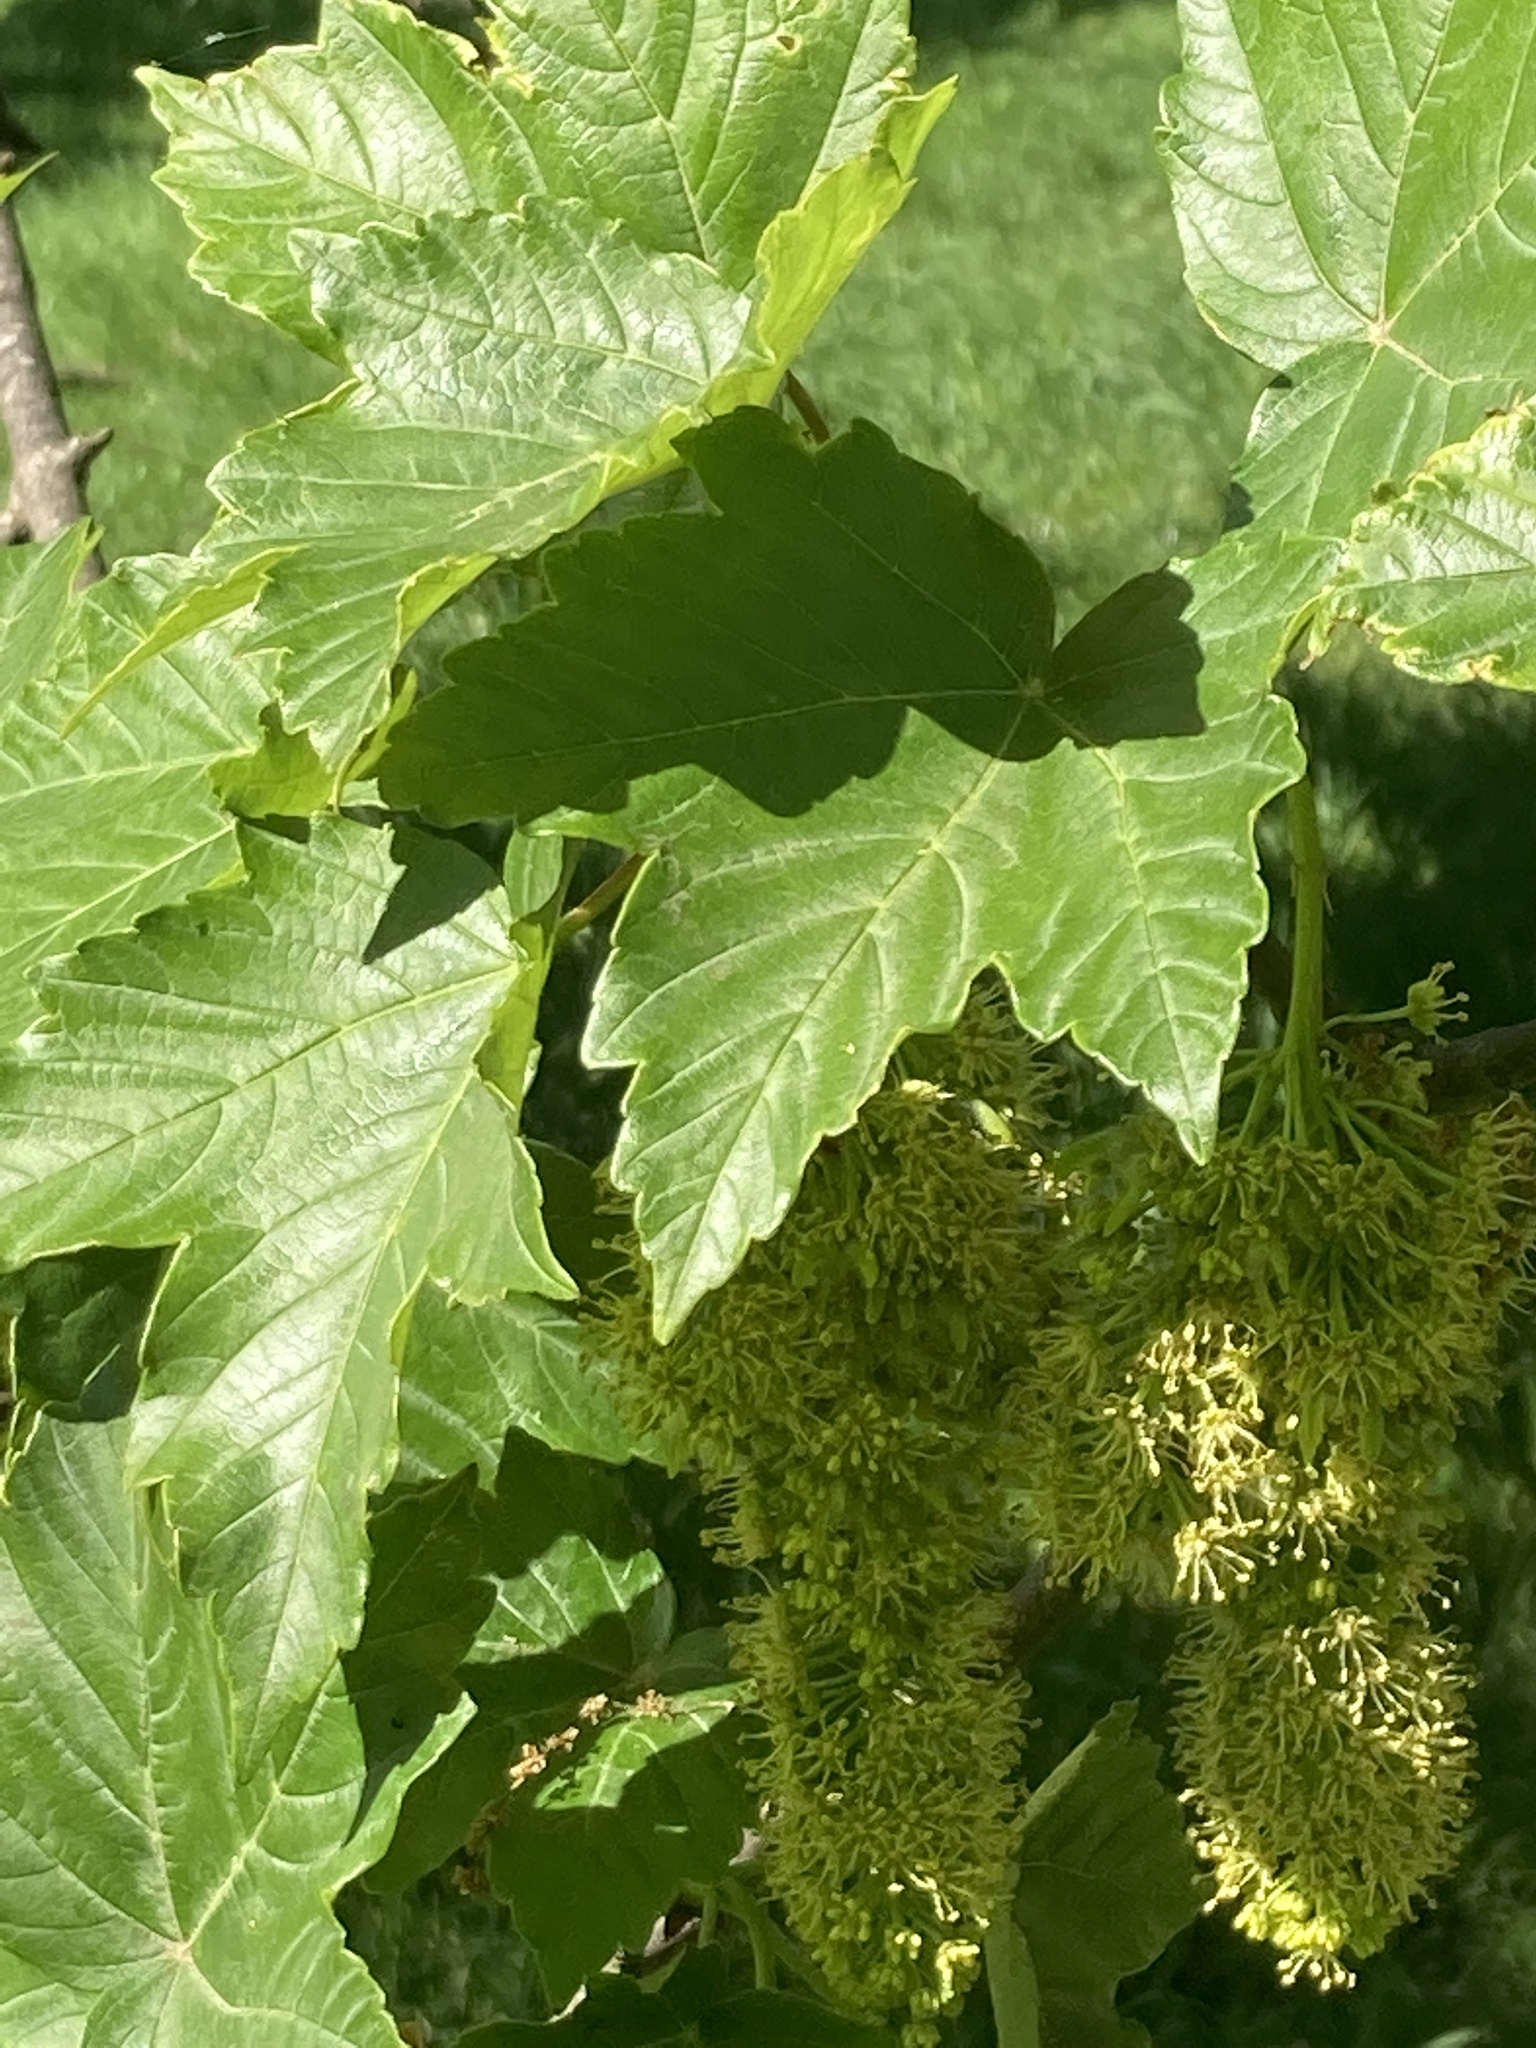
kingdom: Plantae
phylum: Tracheophyta
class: Magnoliopsida
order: Sapindales
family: Sapindaceae
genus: Acer
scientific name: Acer pseudoplatanus
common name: Sycamore
